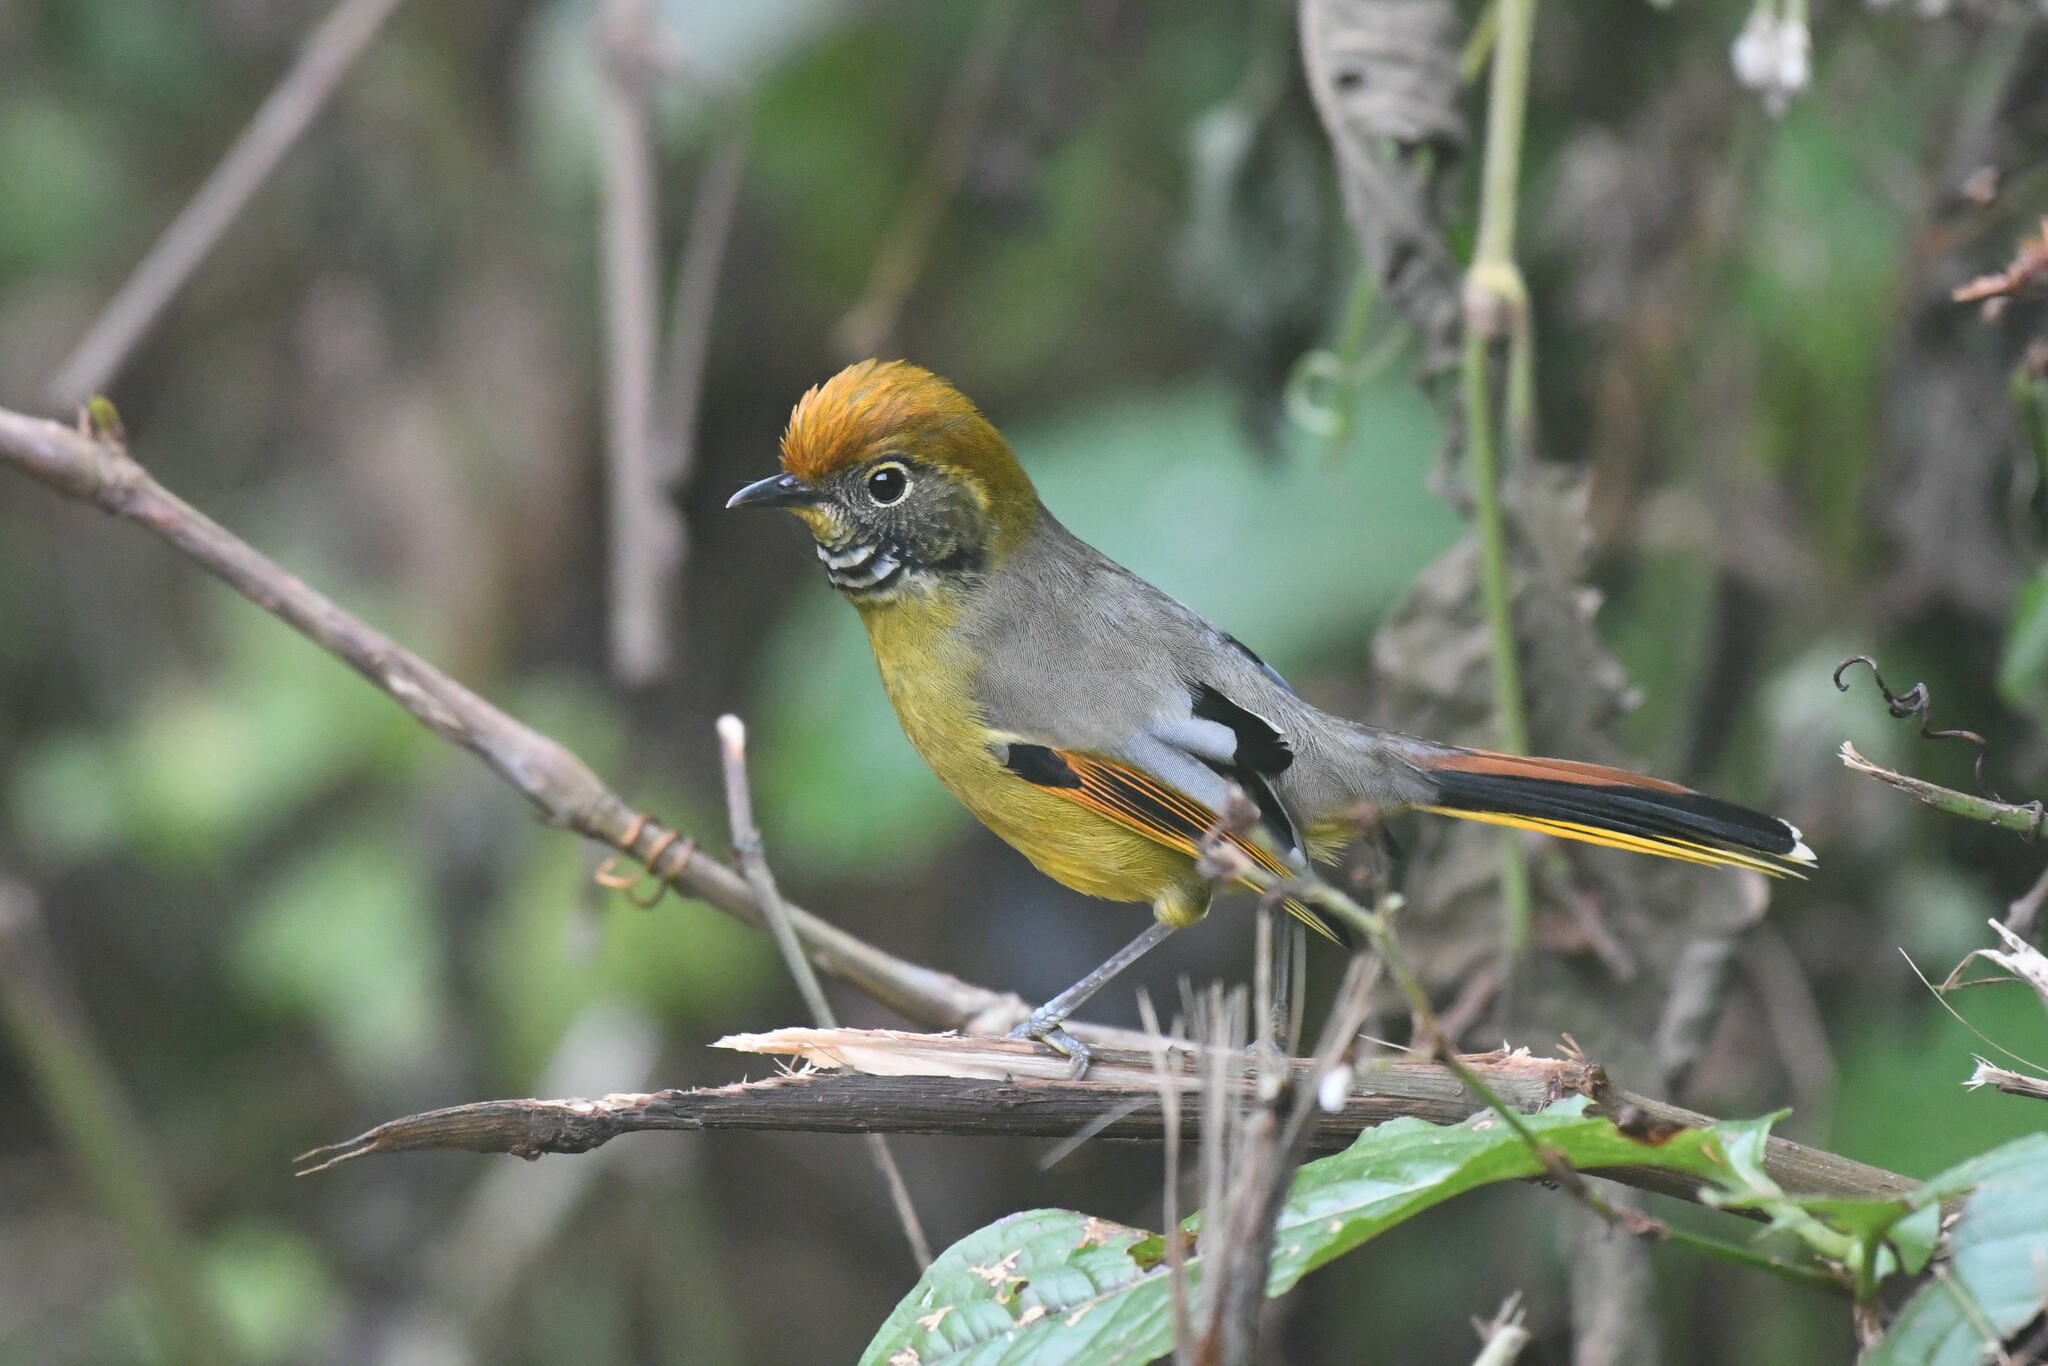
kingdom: Animalia
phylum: Chordata
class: Aves
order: Passeriformes
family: Leiothrichidae
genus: Minla
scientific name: Minla strigula
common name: Chestnut-tailed minla
